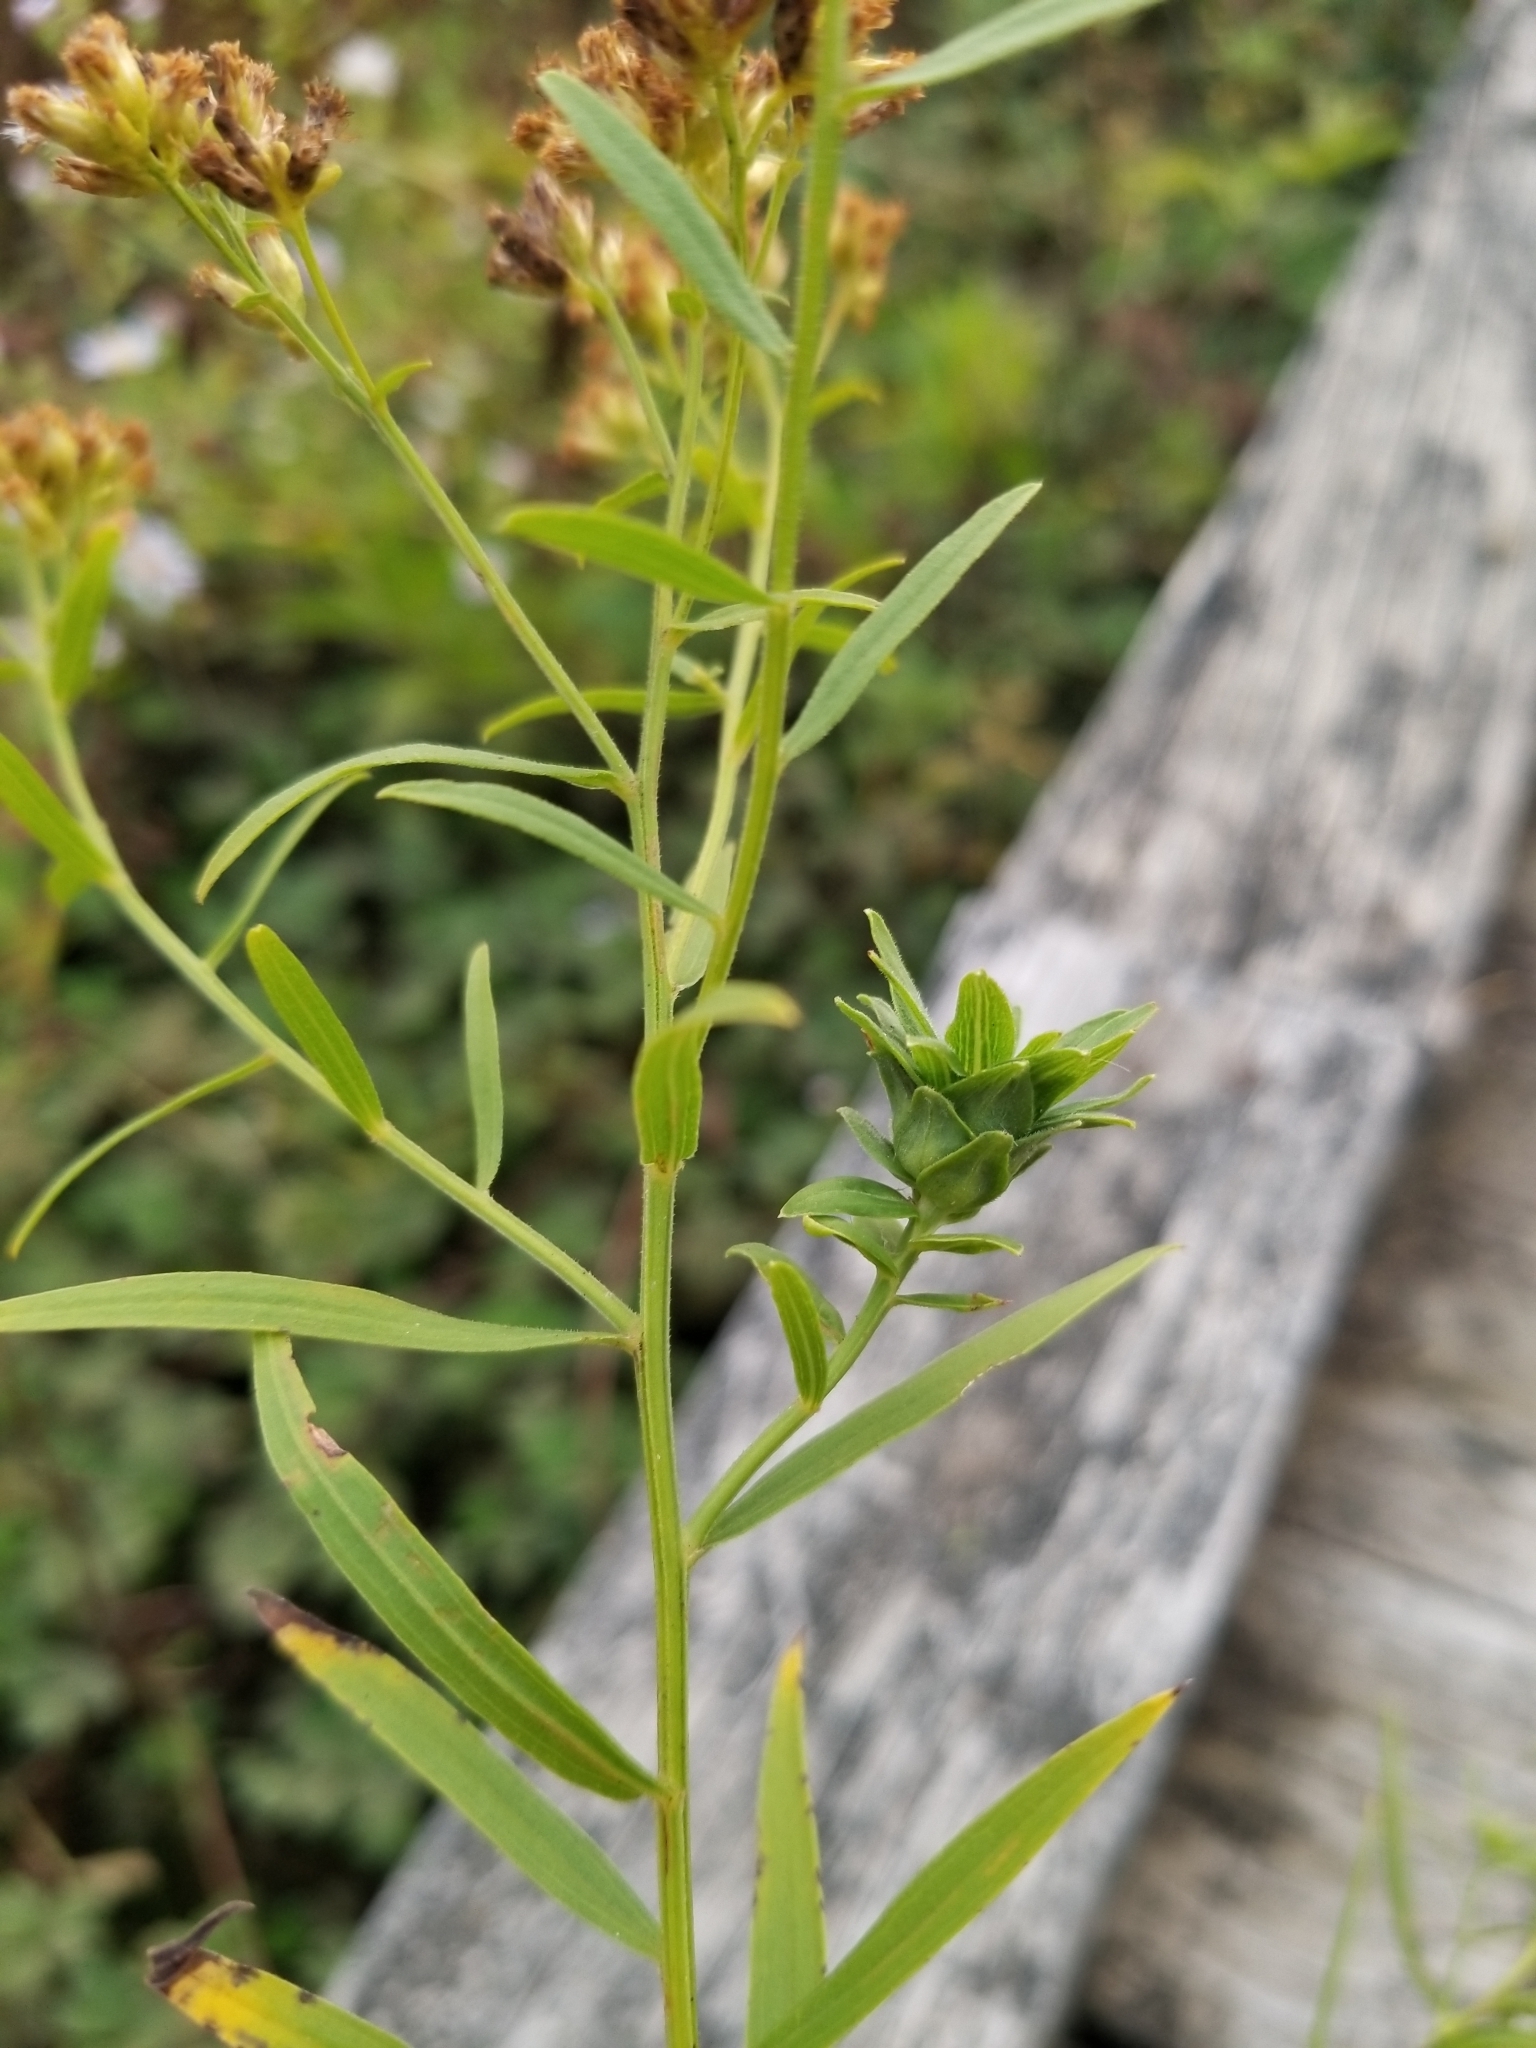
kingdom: Animalia
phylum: Arthropoda
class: Insecta
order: Diptera
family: Cecidomyiidae
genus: Asphondylia
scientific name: Asphondylia pseudorosa
